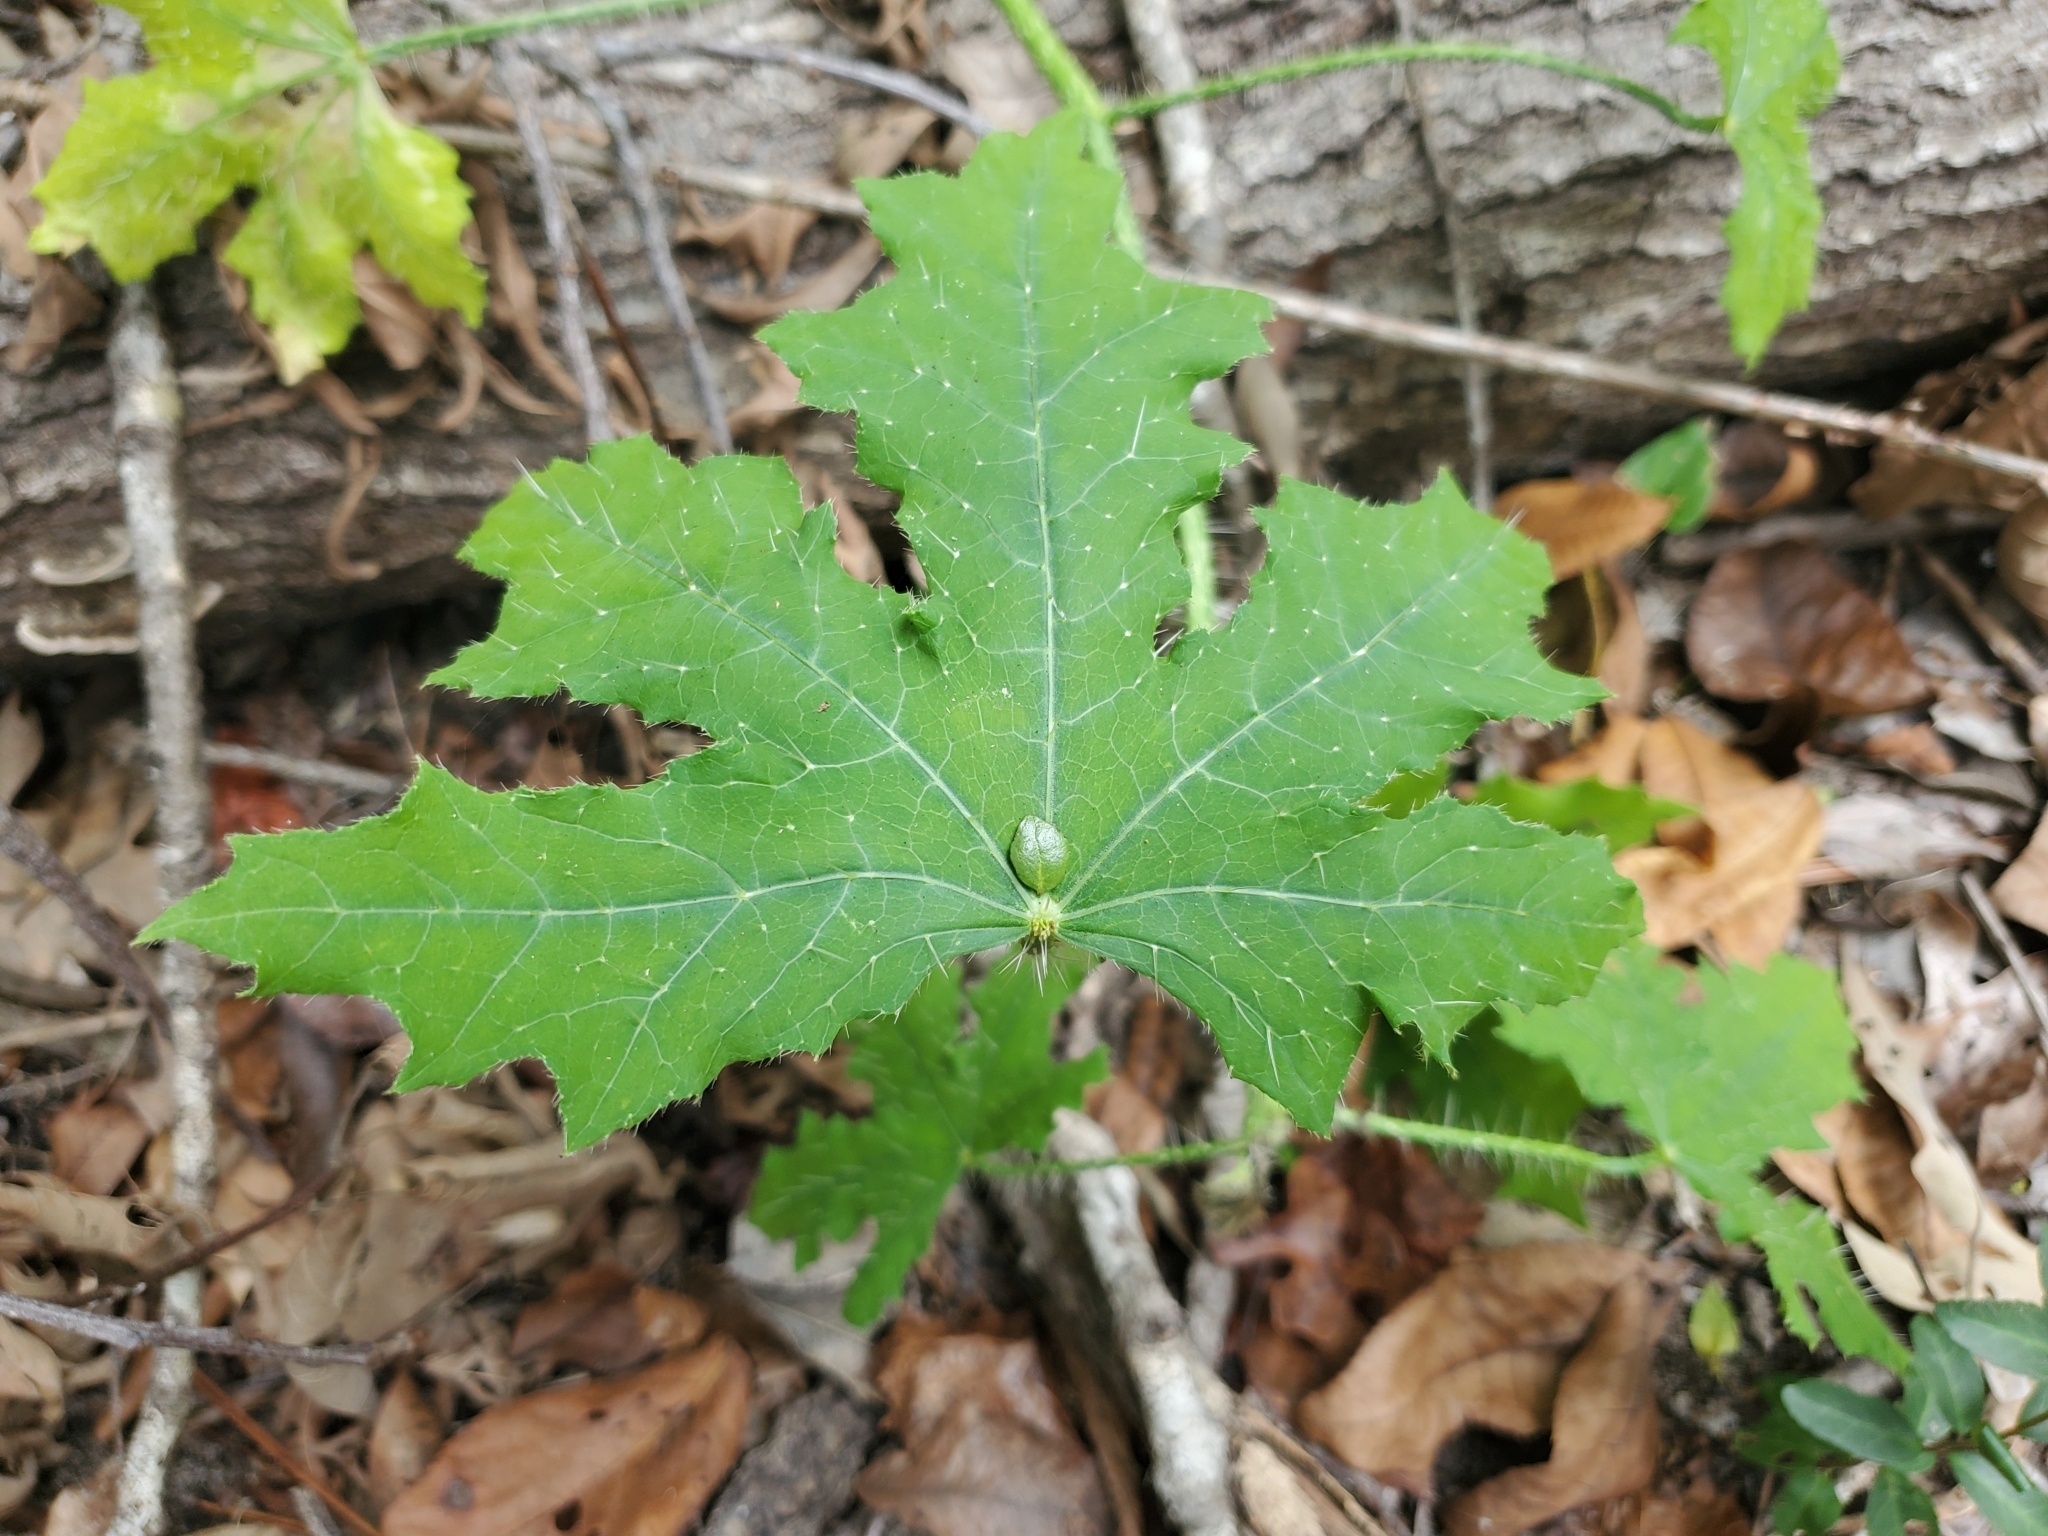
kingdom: Plantae
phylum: Tracheophyta
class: Magnoliopsida
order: Malpighiales
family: Euphorbiaceae
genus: Cnidoscolus
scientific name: Cnidoscolus texanus
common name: Texas bull-nettle
